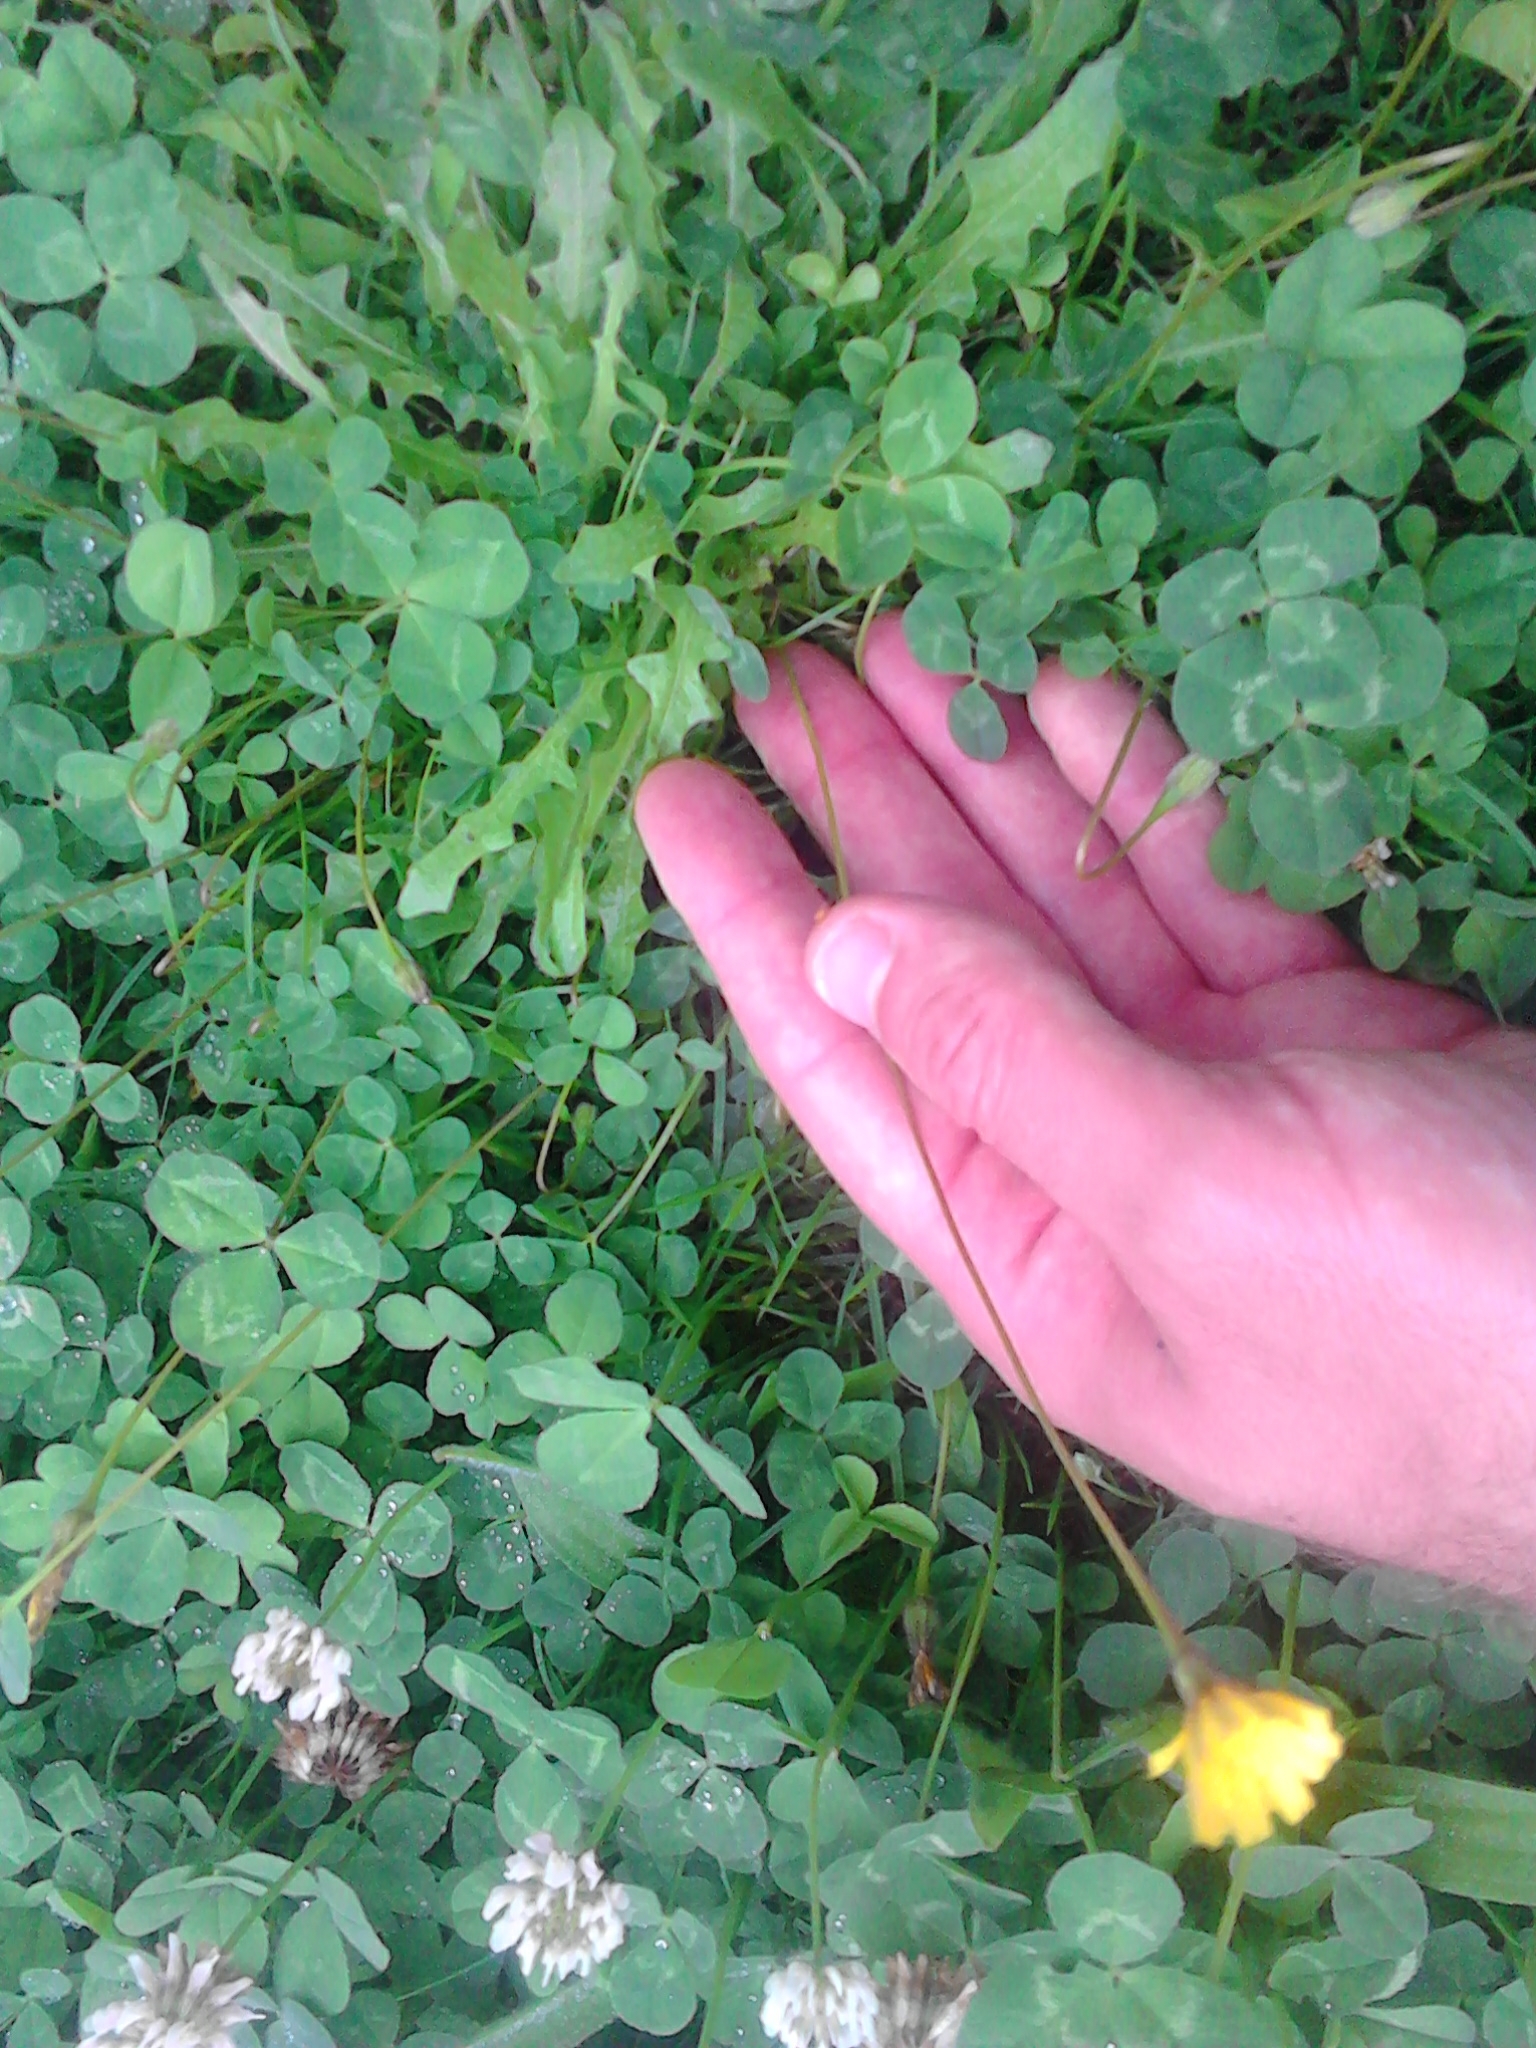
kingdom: Plantae
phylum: Tracheophyta
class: Magnoliopsida
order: Asterales
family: Asteraceae
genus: Thrincia
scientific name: Thrincia saxatilis
